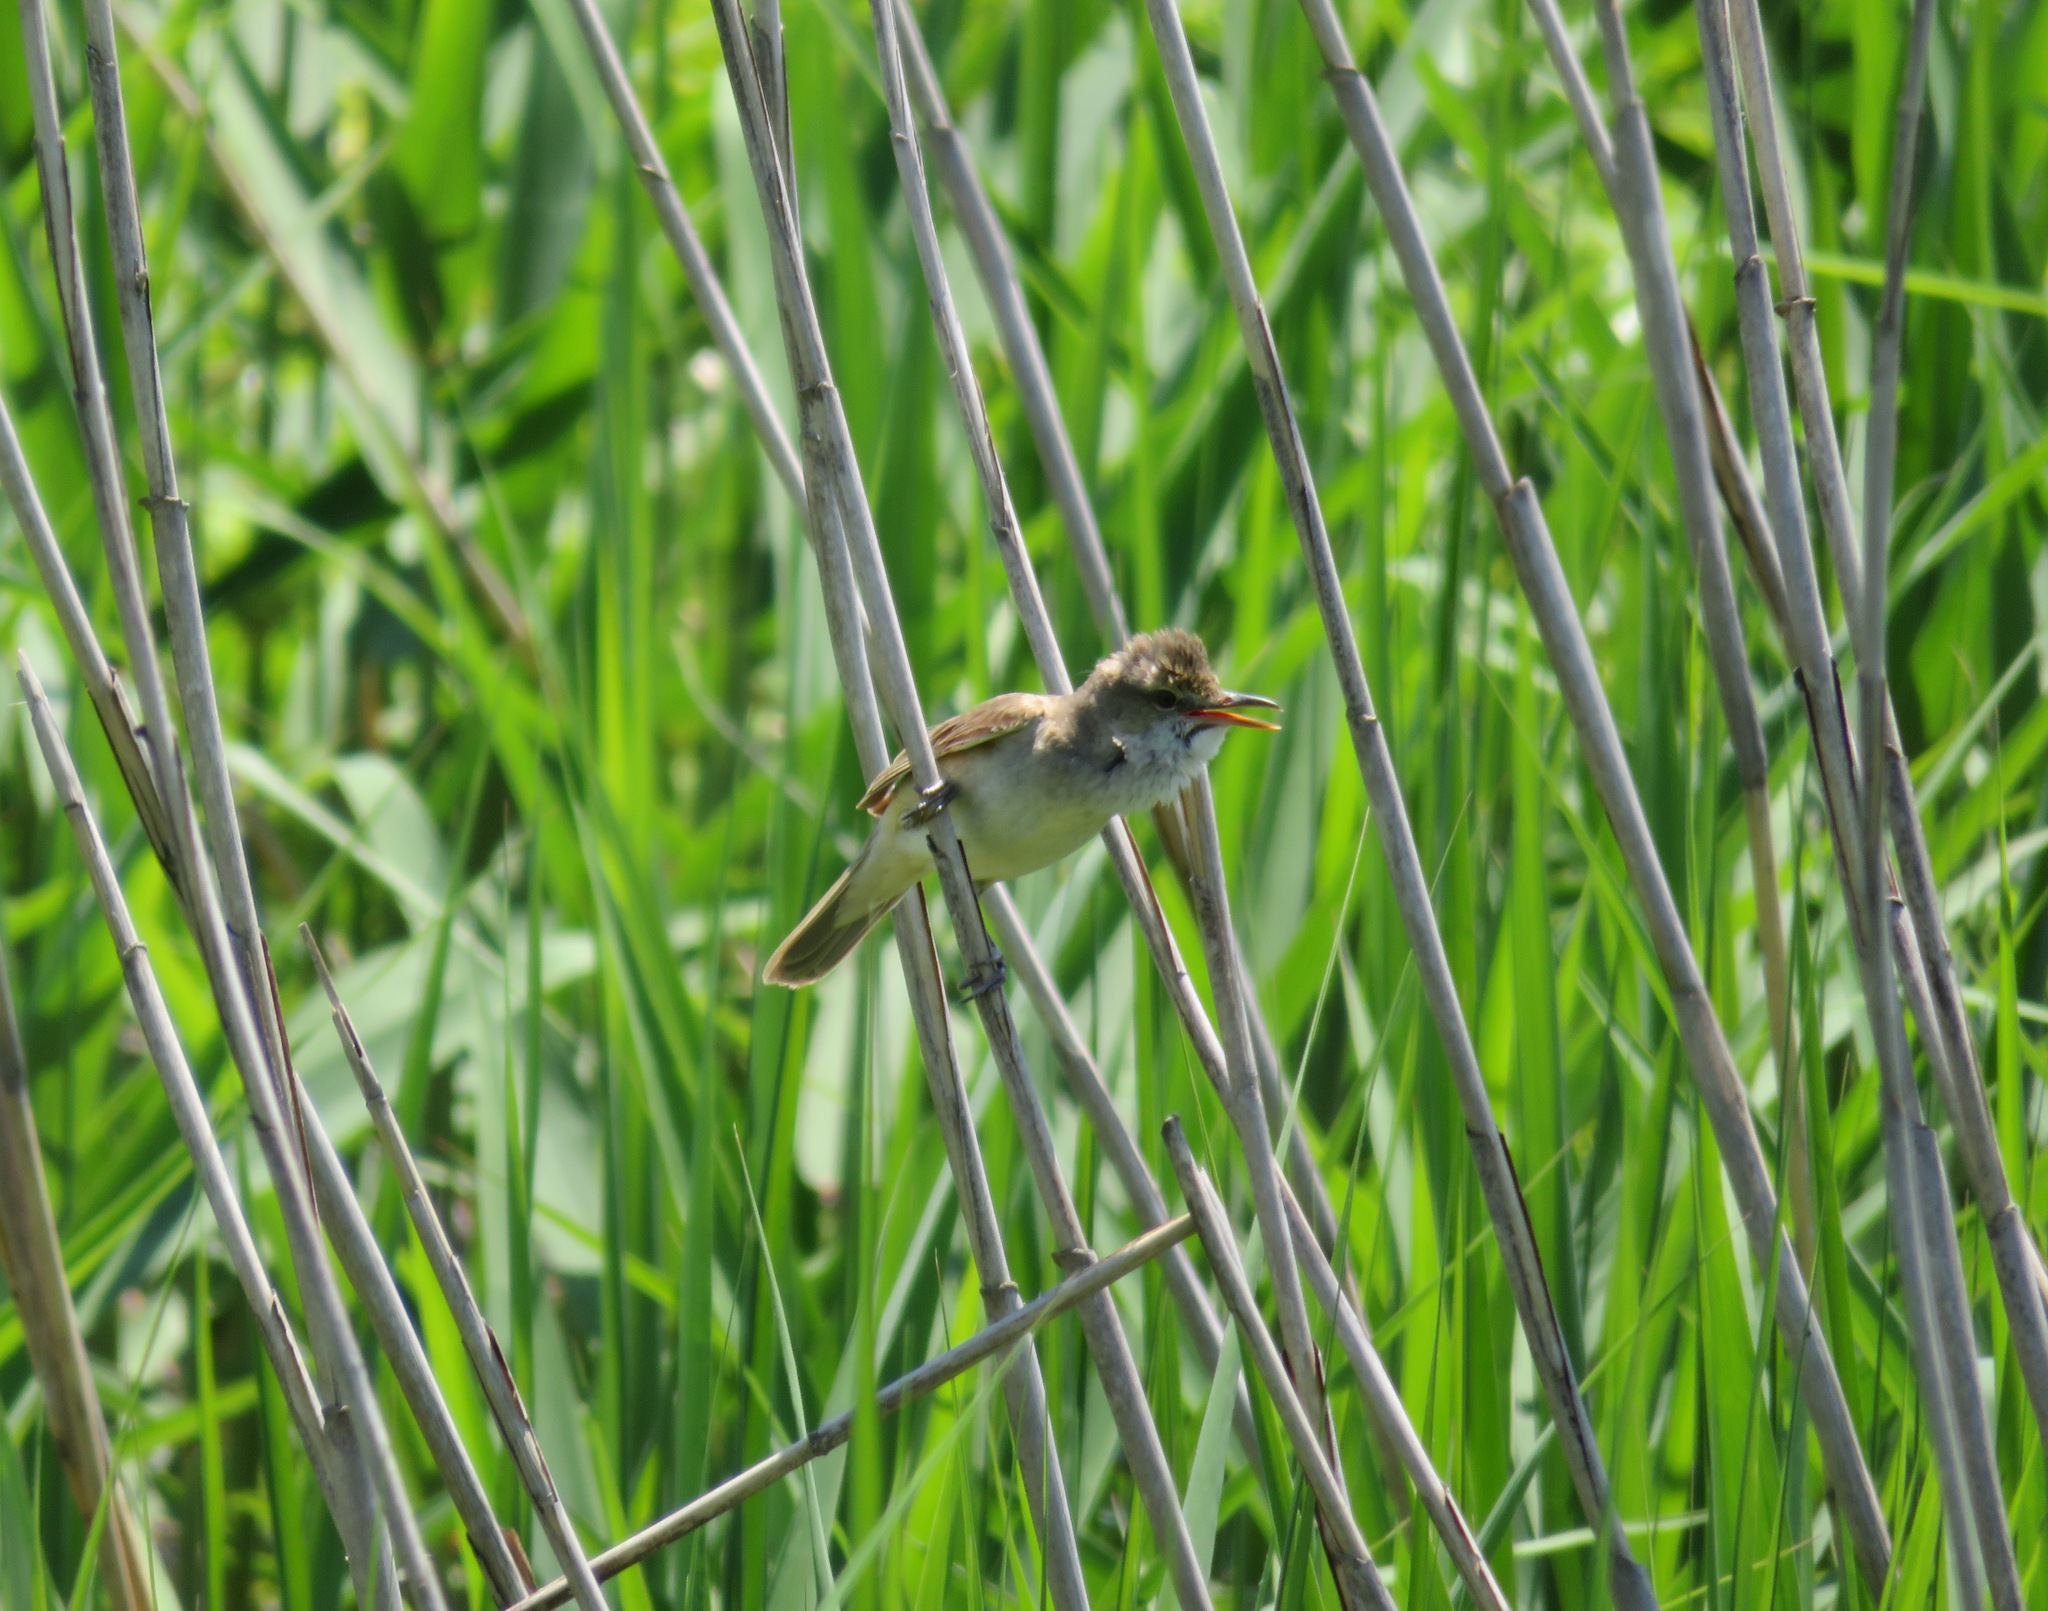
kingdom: Animalia
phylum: Chordata
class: Aves
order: Passeriformes
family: Acrocephalidae
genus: Acrocephalus
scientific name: Acrocephalus orientalis
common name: Oriental reed warbler
